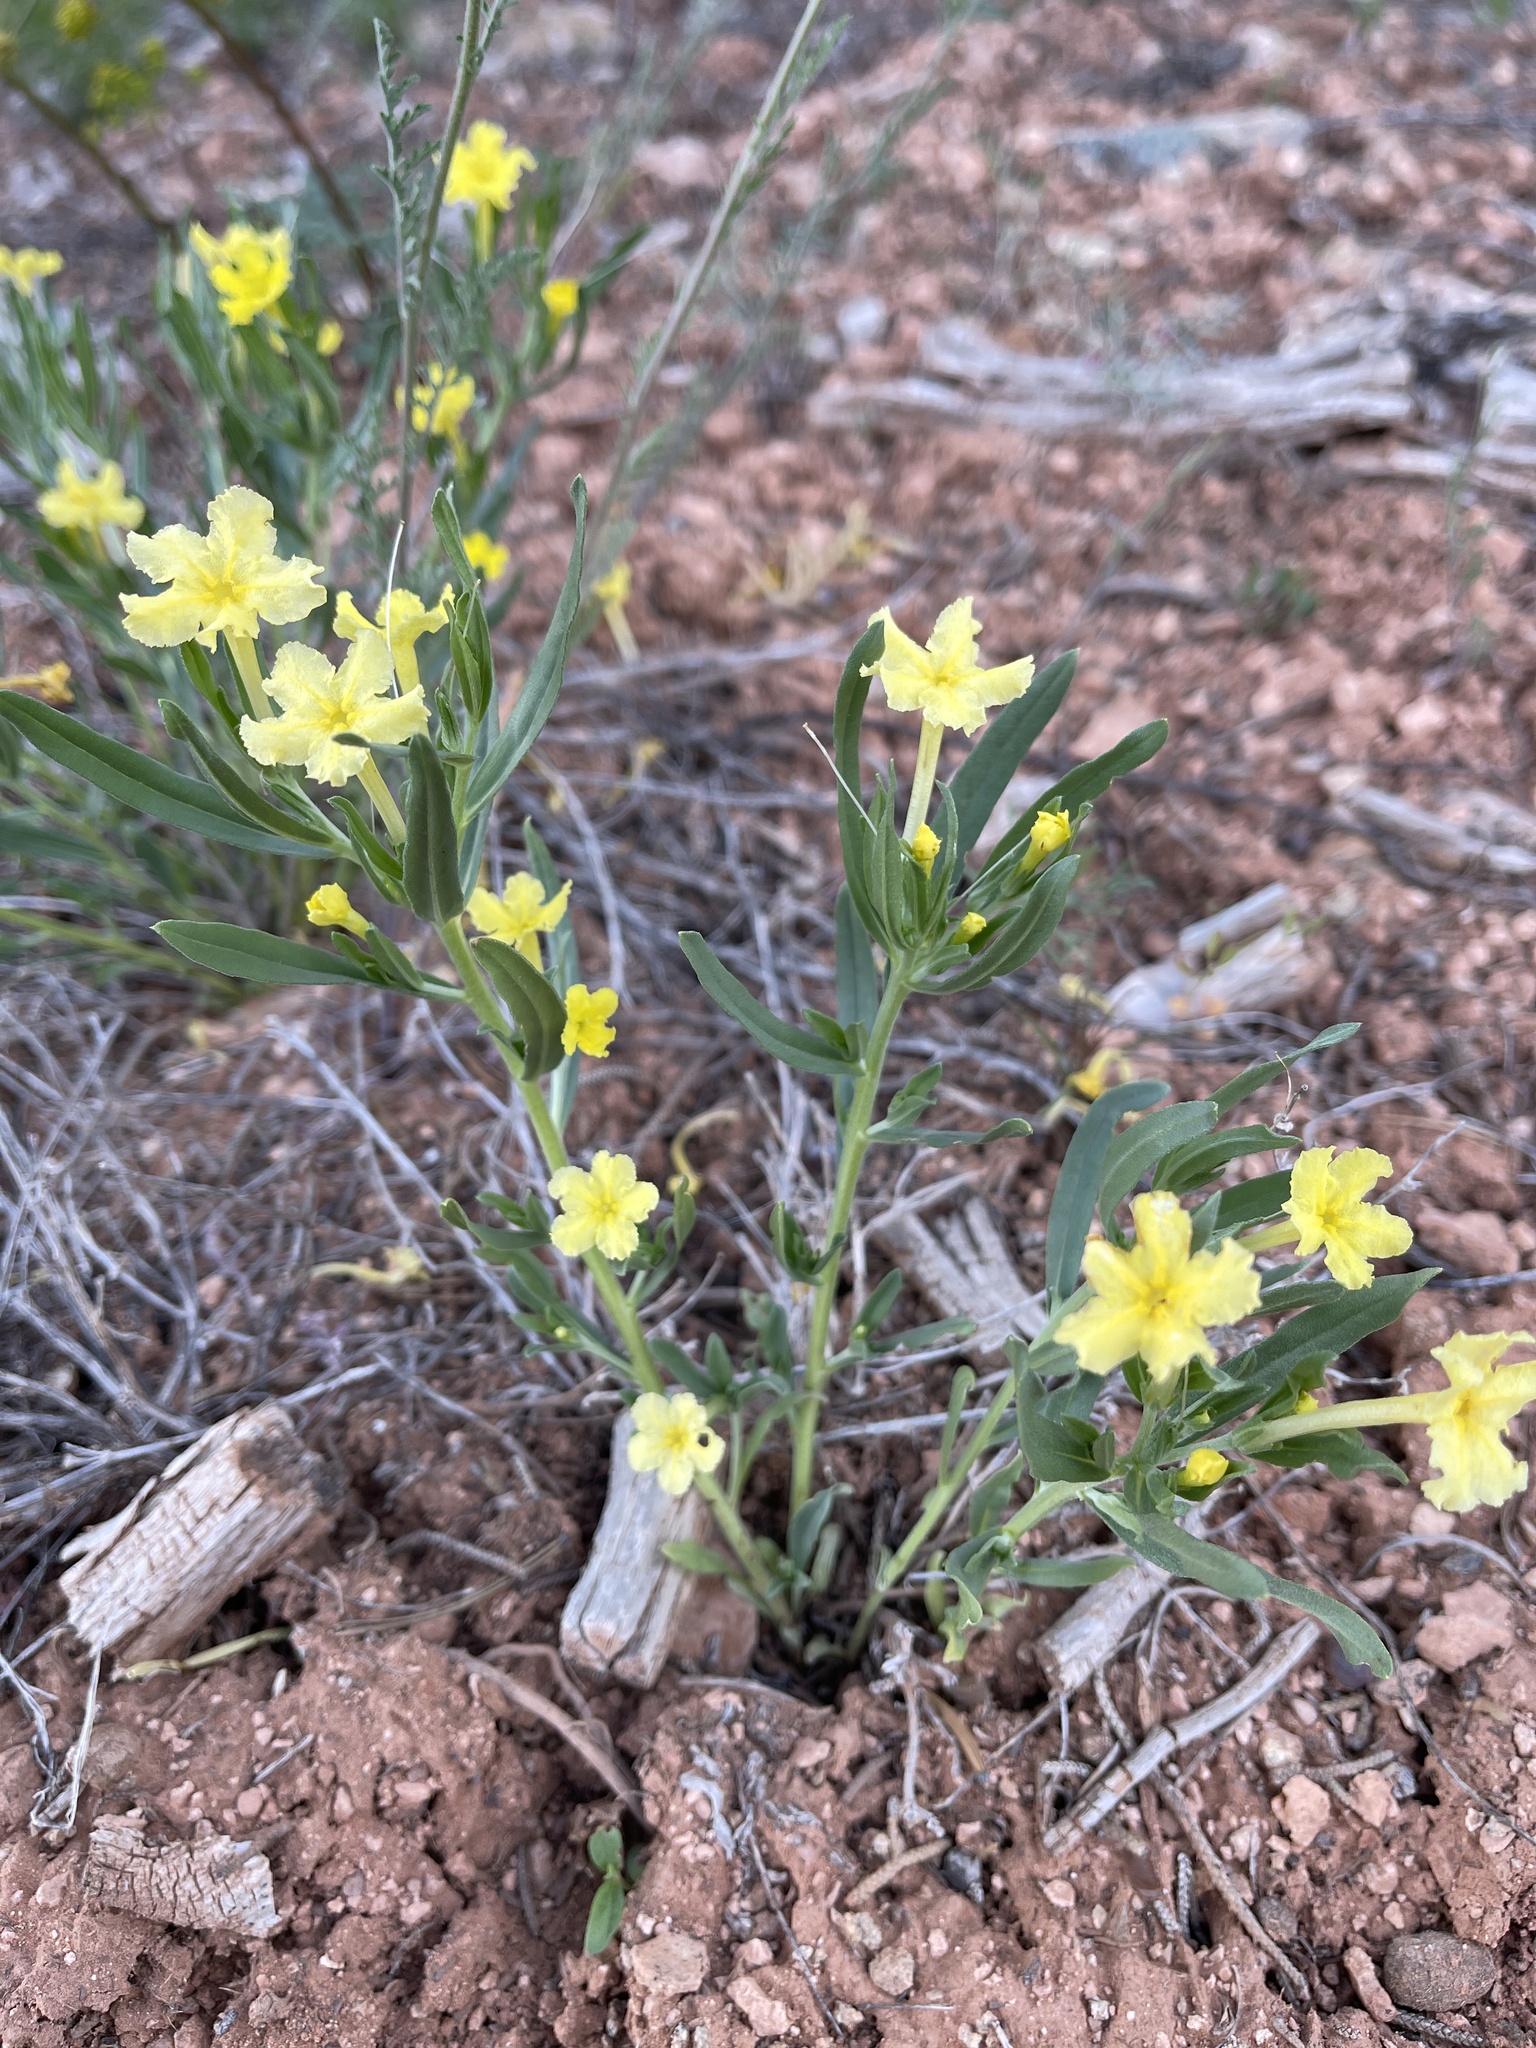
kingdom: Plantae
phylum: Tracheophyta
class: Magnoliopsida
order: Boraginales
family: Boraginaceae
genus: Lithospermum
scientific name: Lithospermum incisum
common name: Fringed gromwell
